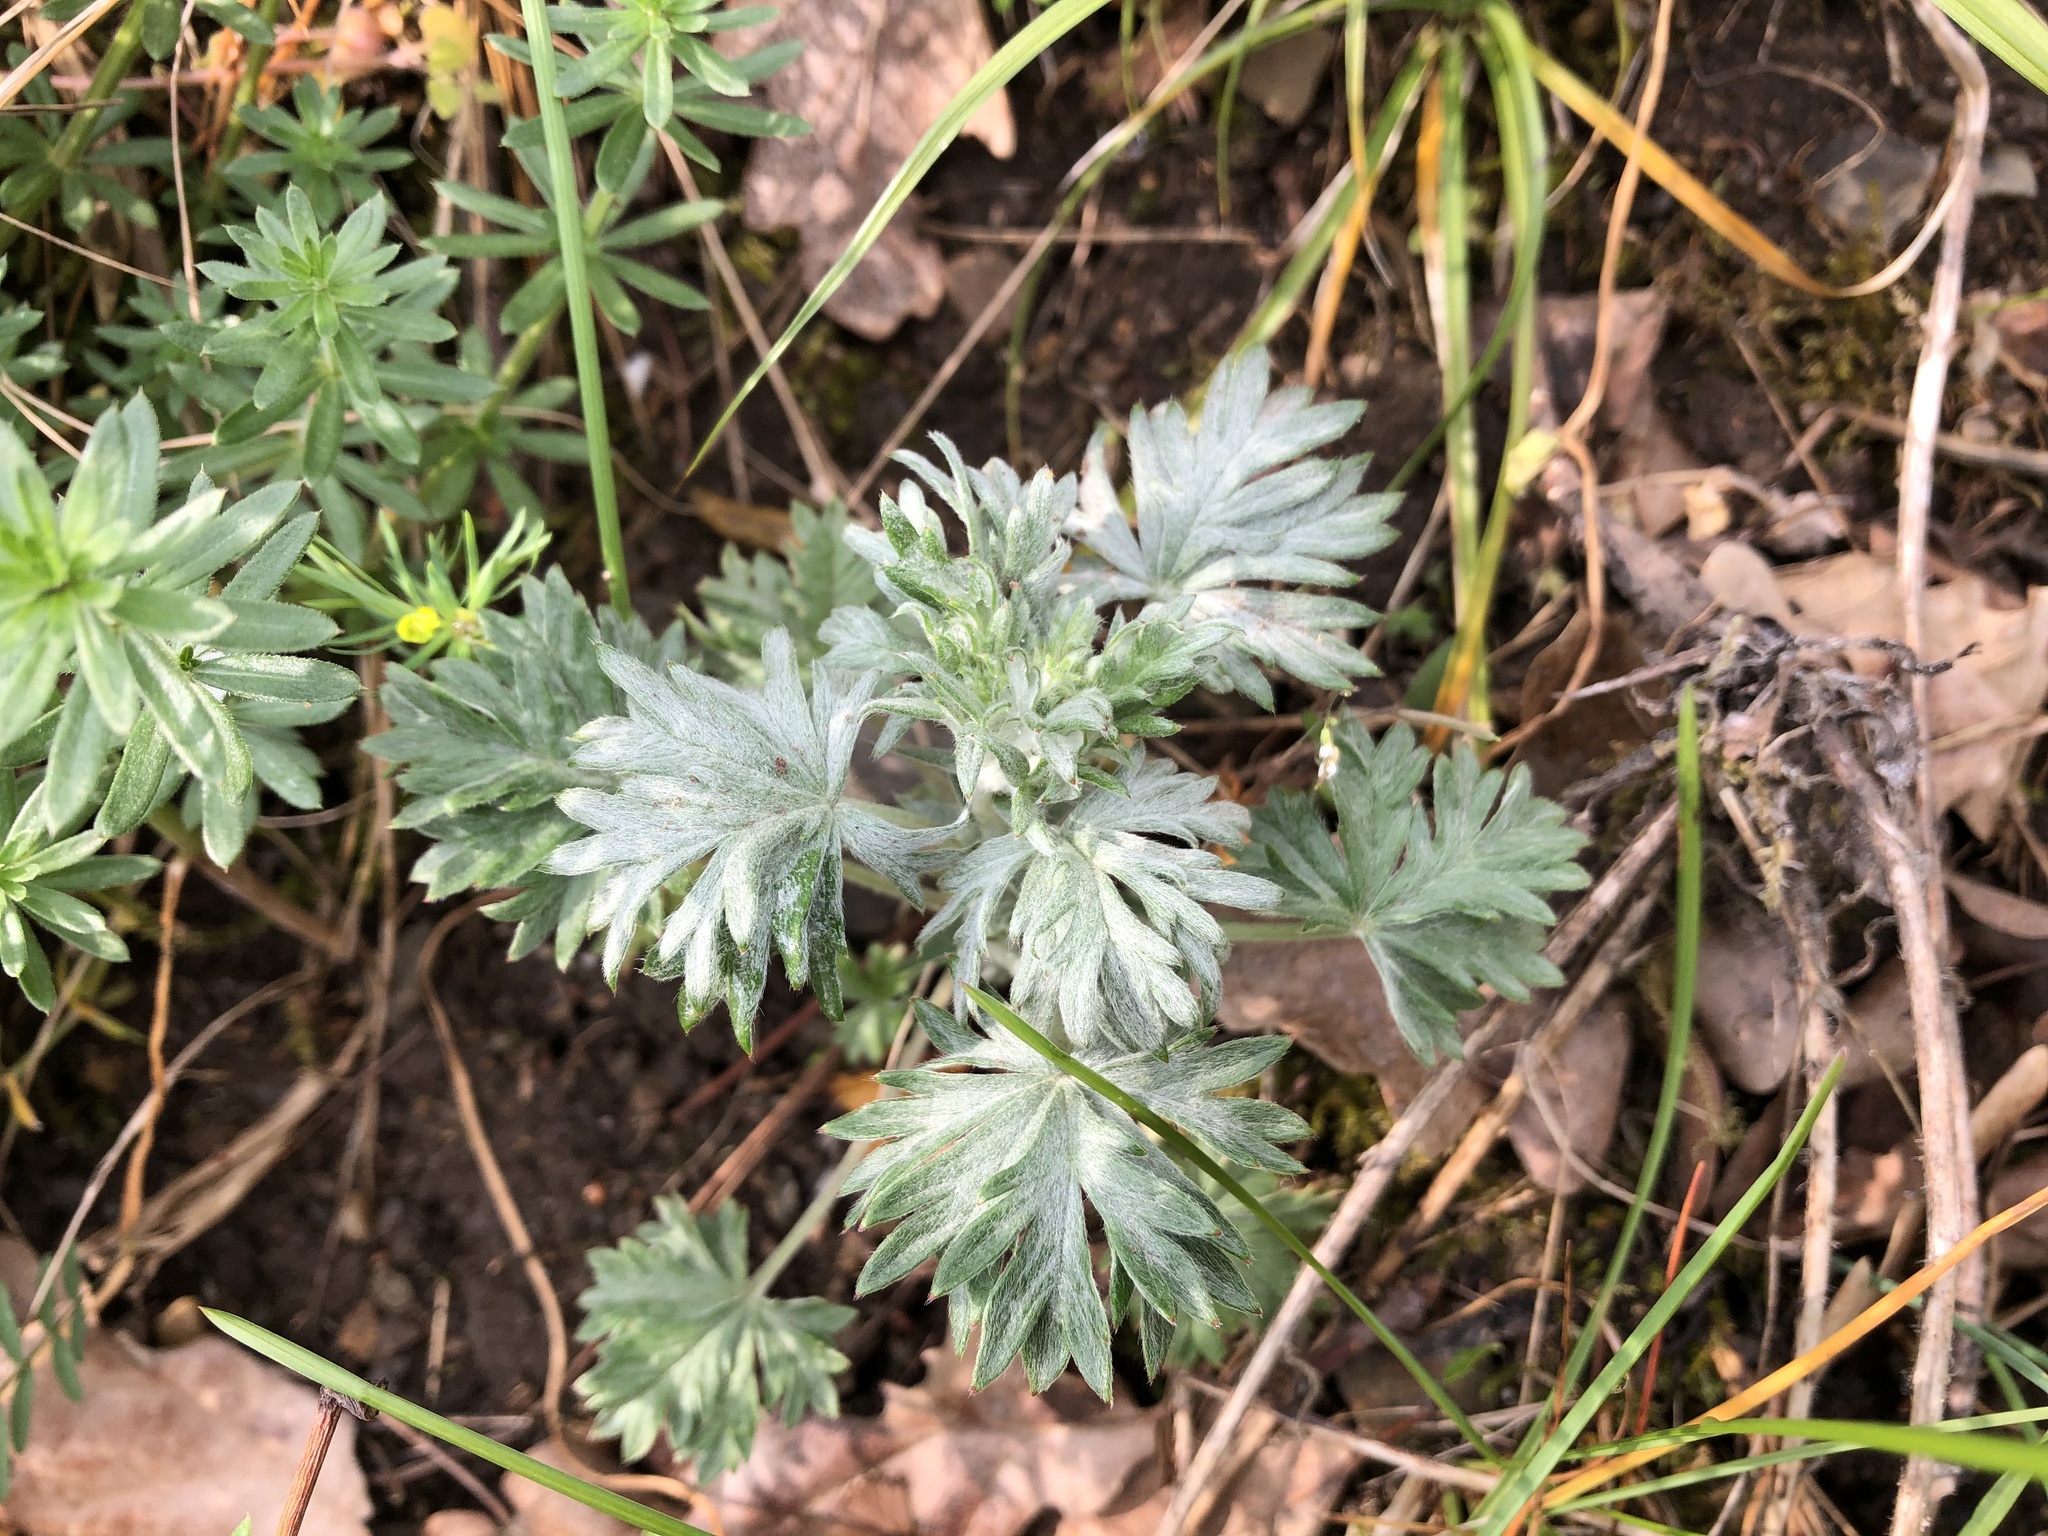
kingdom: Plantae
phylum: Tracheophyta
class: Magnoliopsida
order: Rosales
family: Rosaceae
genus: Potentilla
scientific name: Potentilla argentea
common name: Hoary cinquefoil
